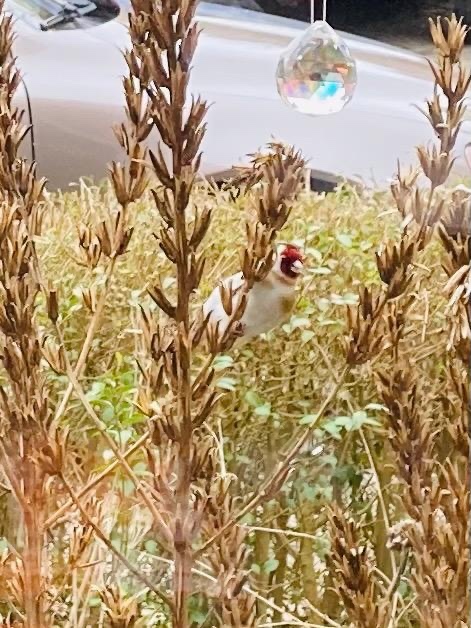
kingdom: Animalia
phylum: Chordata
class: Aves
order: Passeriformes
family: Fringillidae
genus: Carduelis
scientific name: Carduelis carduelis
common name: European goldfinch
